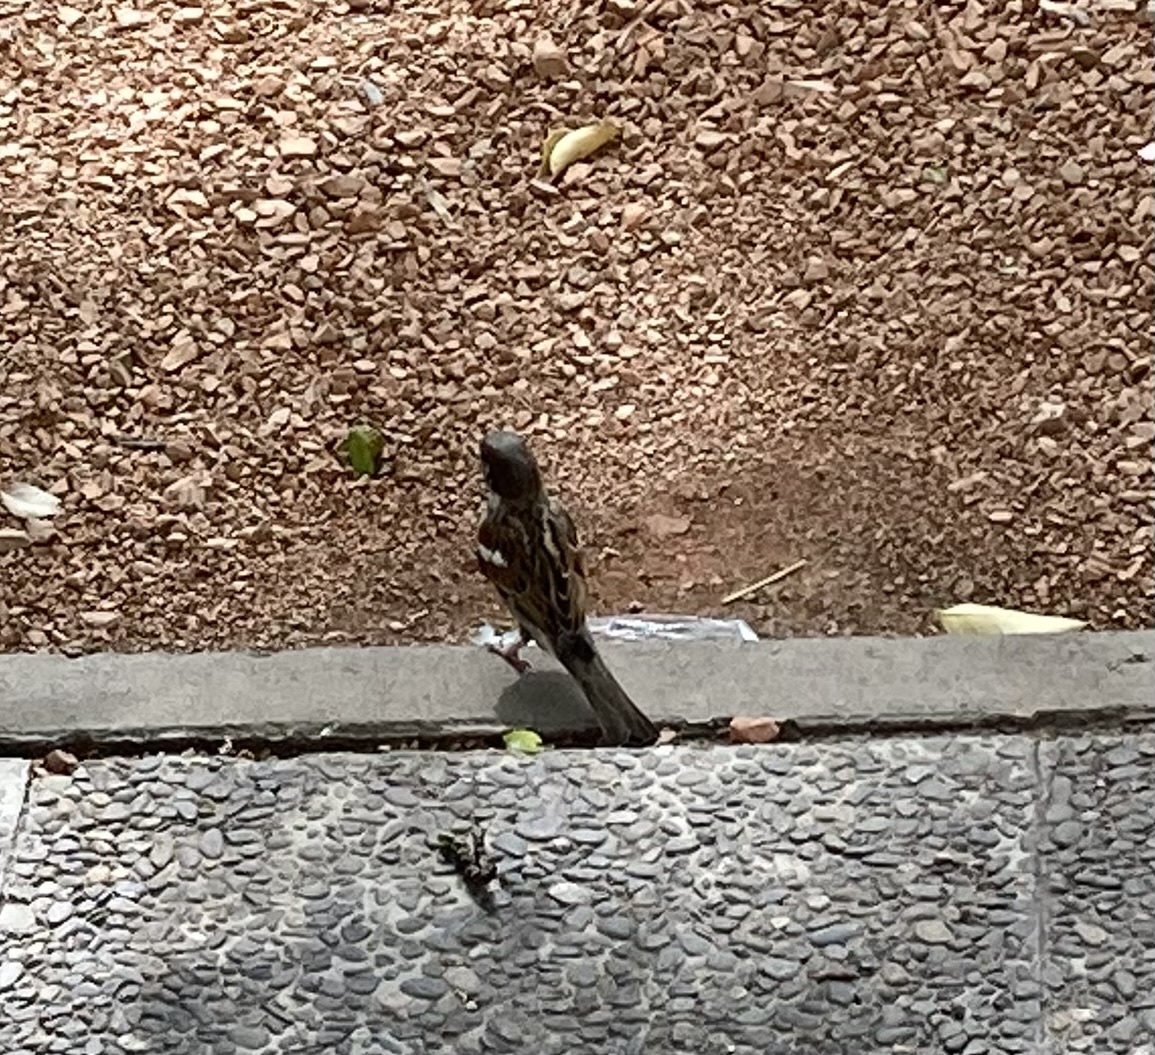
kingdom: Animalia
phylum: Chordata
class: Aves
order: Passeriformes
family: Passeridae
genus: Passer
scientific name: Passer domesticus
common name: House sparrow
